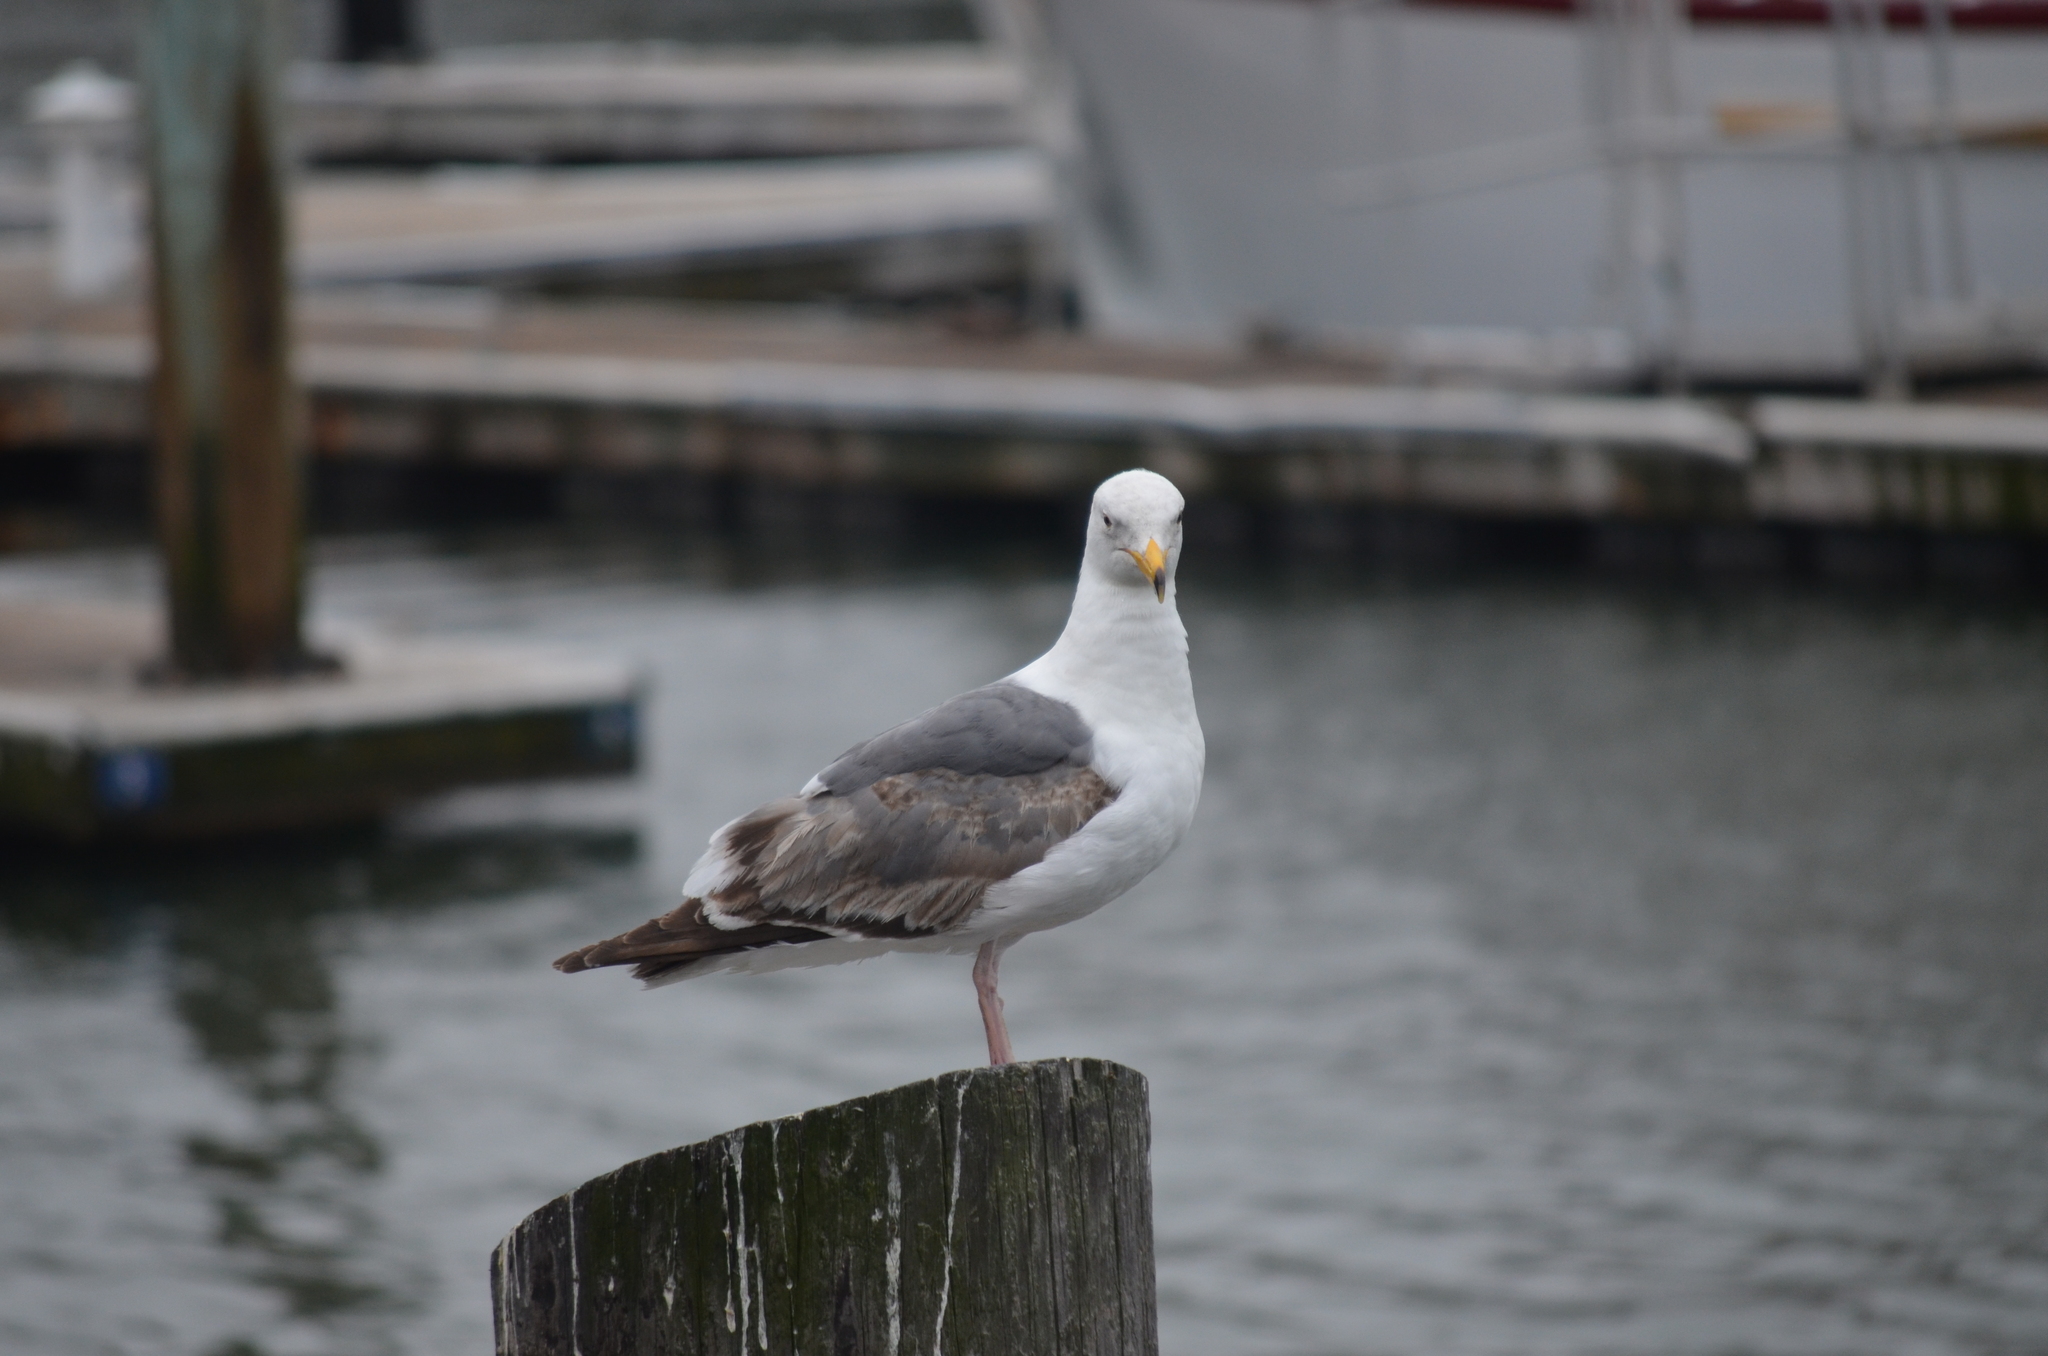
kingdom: Animalia
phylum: Chordata
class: Aves
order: Charadriiformes
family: Laridae
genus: Larus
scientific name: Larus occidentalis
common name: Western gull
